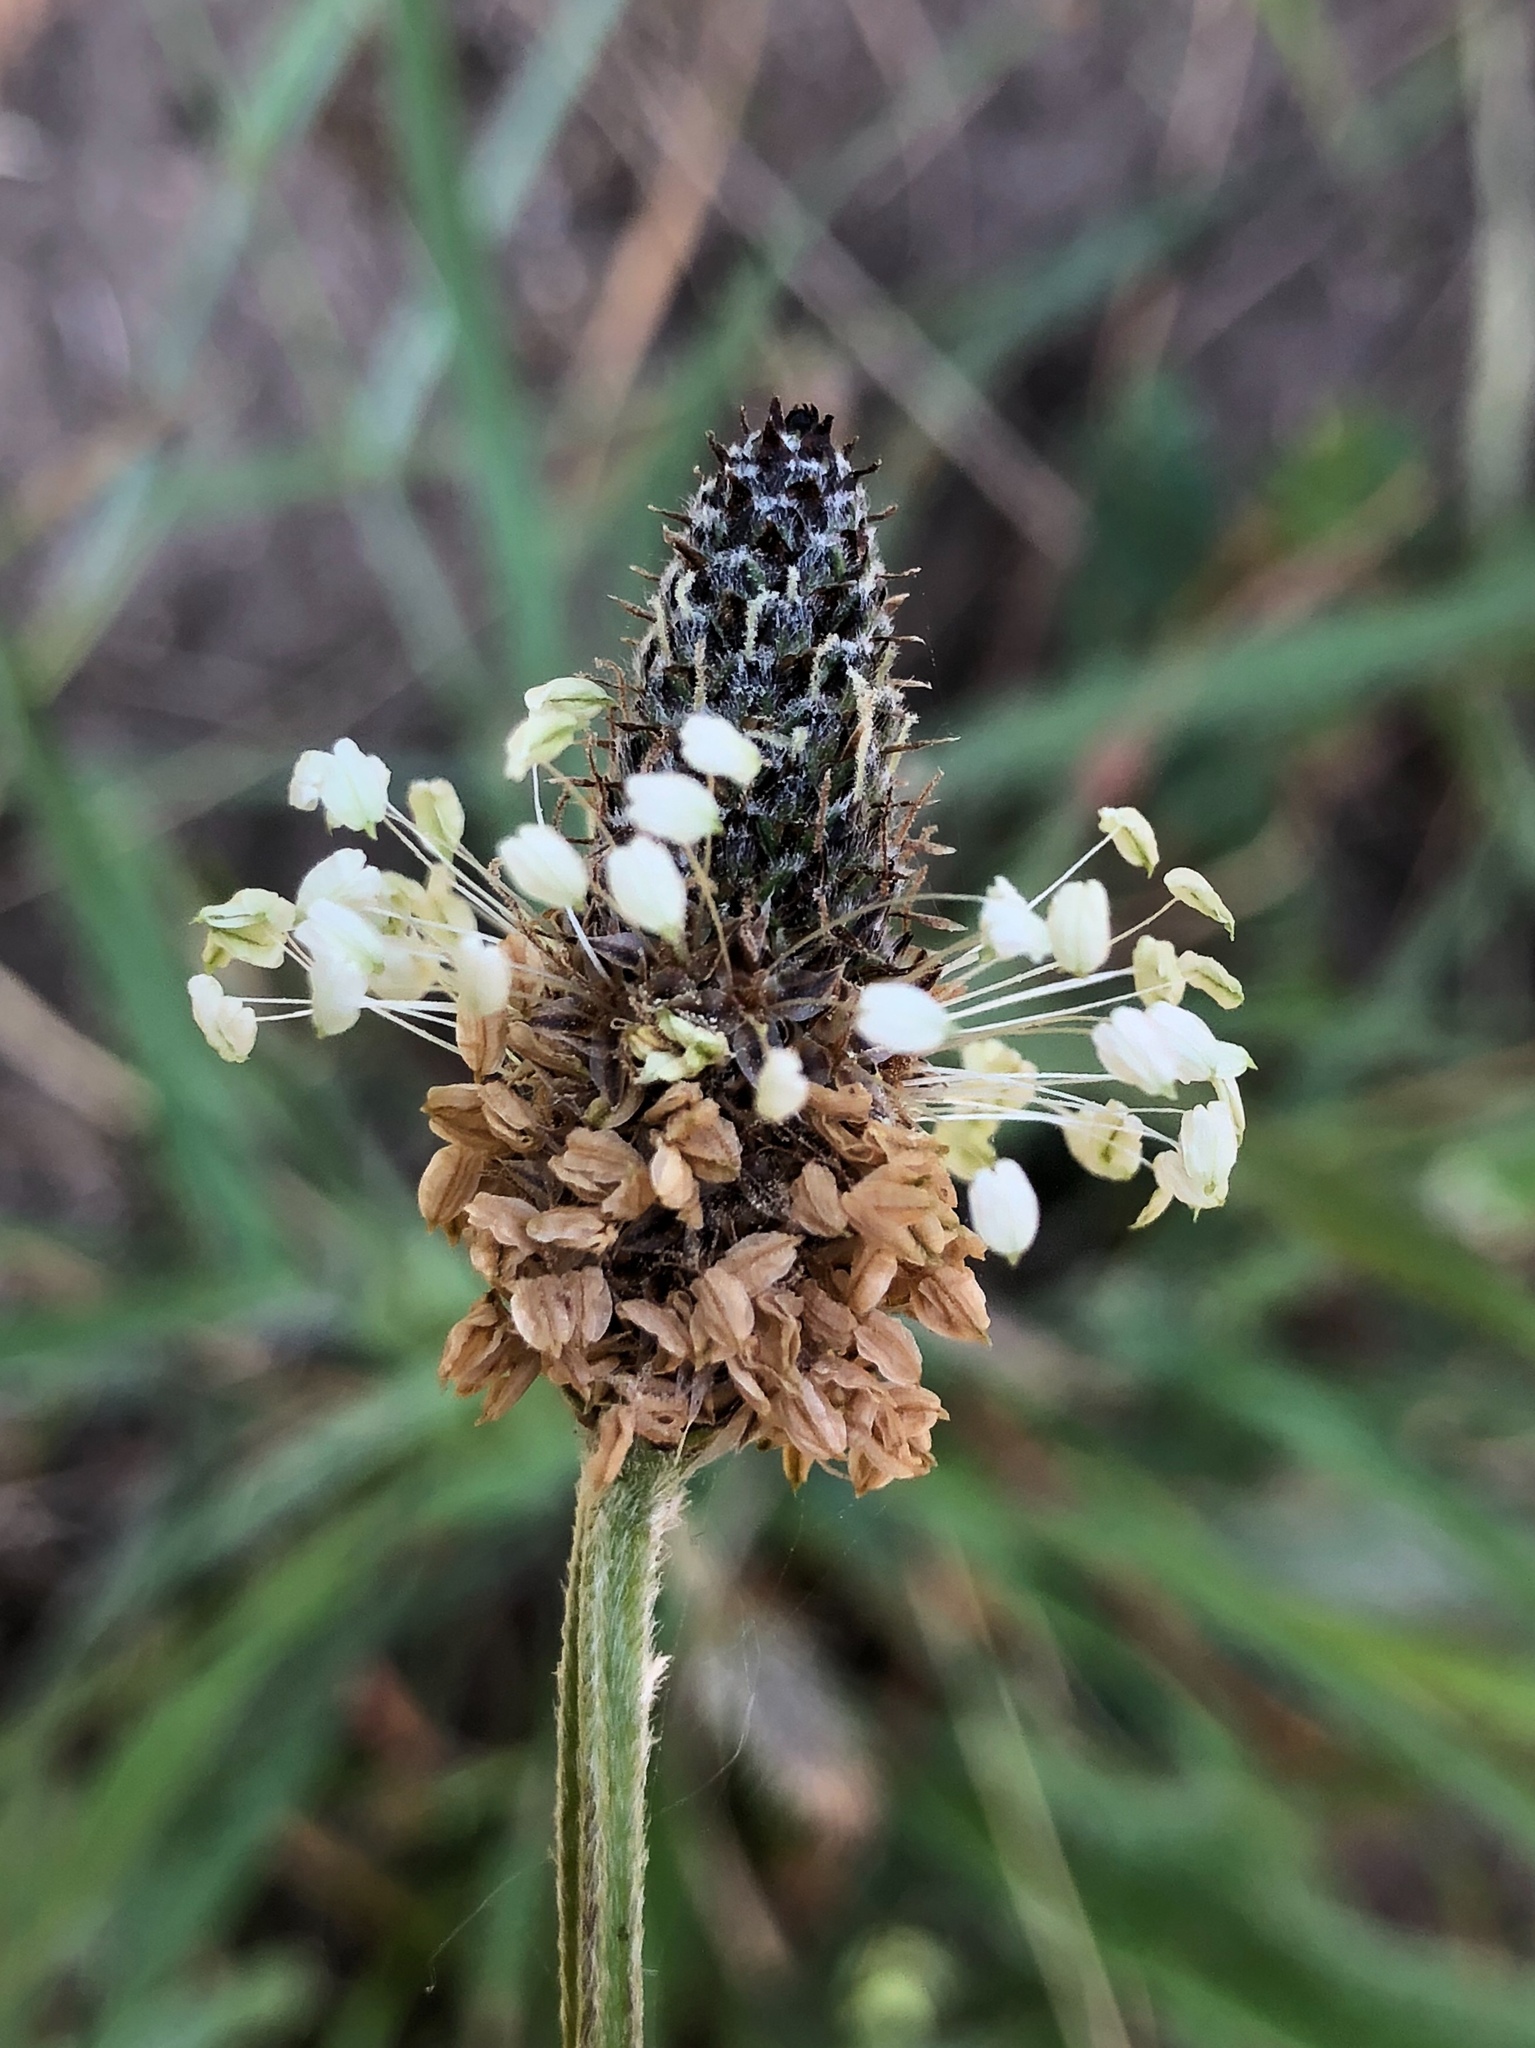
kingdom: Plantae
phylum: Tracheophyta
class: Magnoliopsida
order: Lamiales
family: Plantaginaceae
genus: Plantago
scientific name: Plantago lanceolata
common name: Ribwort plantain
